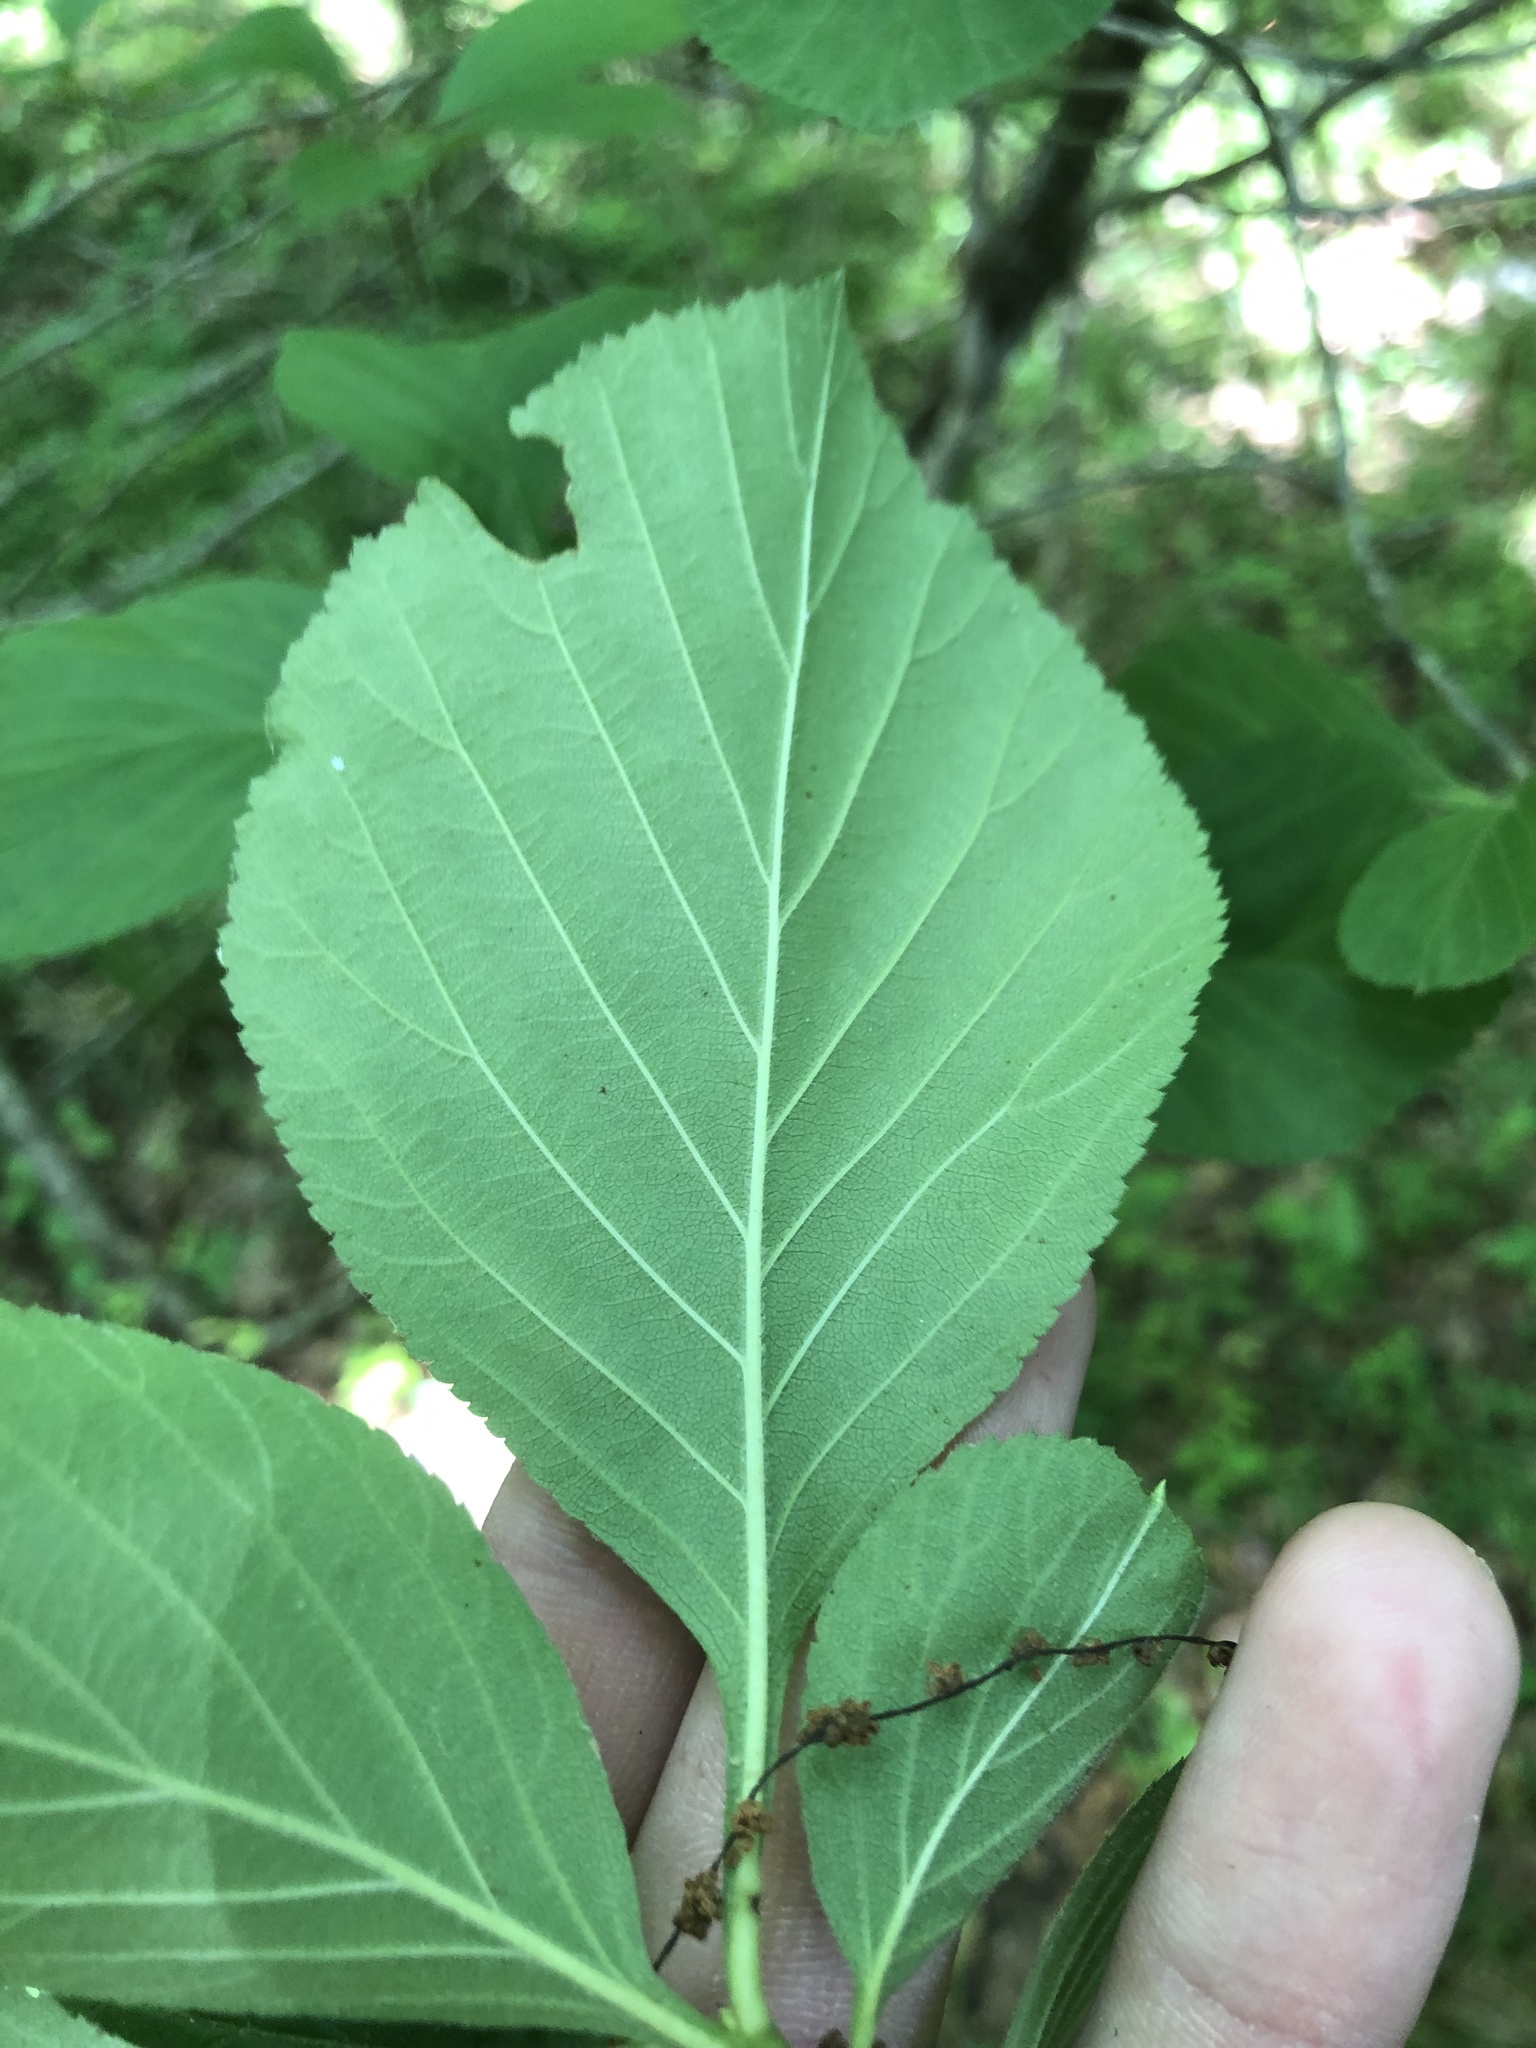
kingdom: Plantae
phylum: Tracheophyta
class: Magnoliopsida
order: Rosales
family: Rosaceae
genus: Crataegus
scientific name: Crataegus calpodendron
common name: Pear hawthorn
